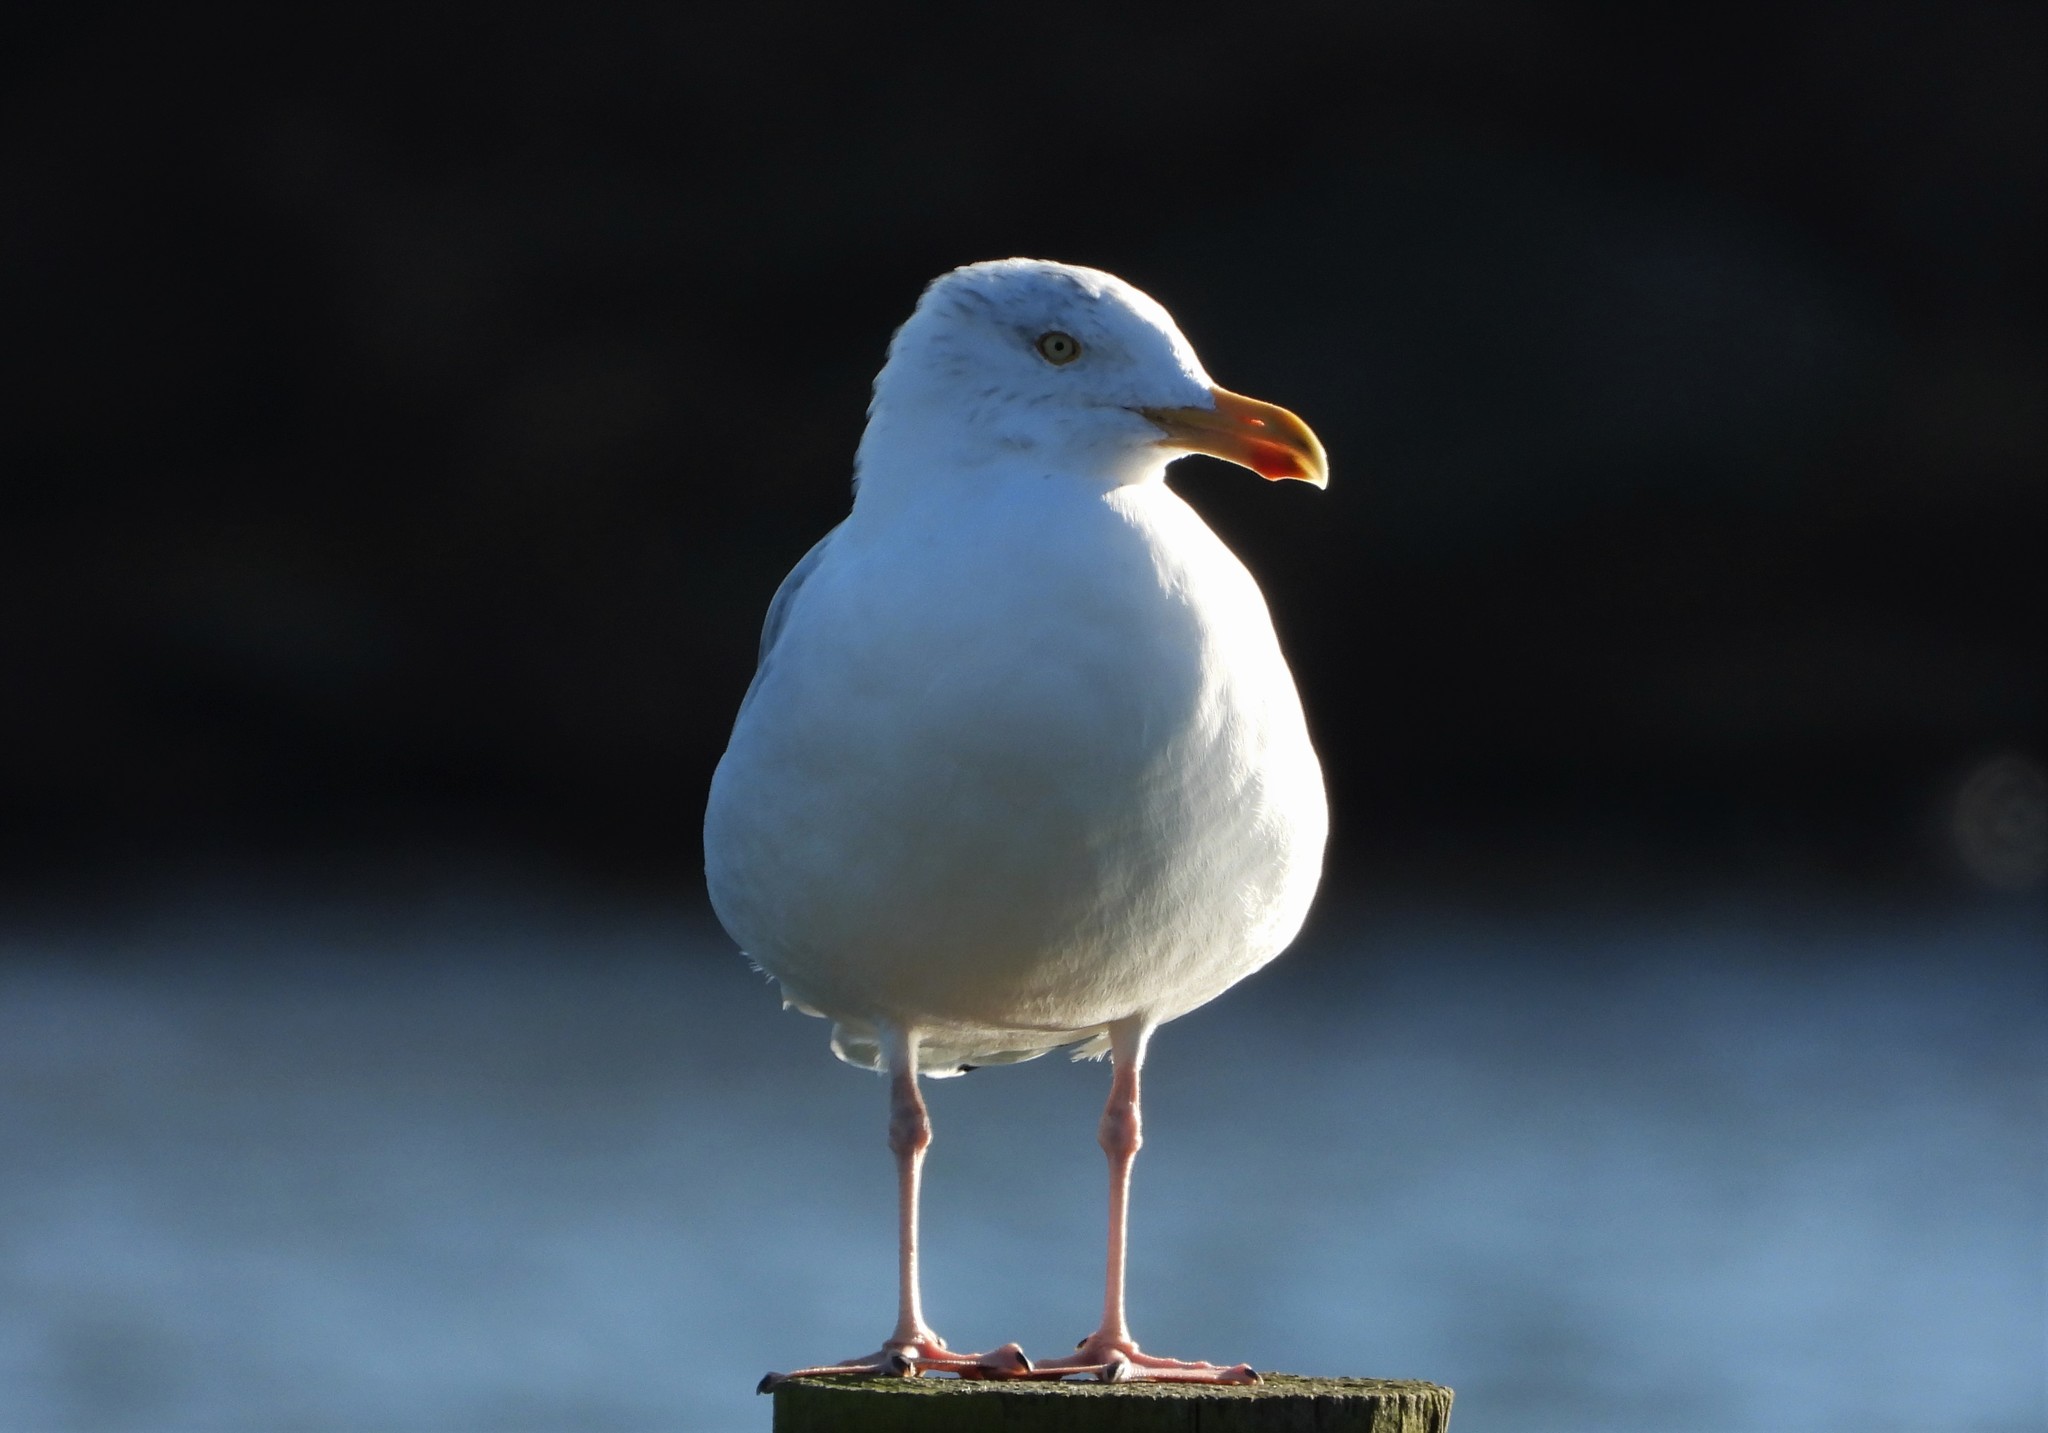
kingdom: Animalia
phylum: Chordata
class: Aves
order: Charadriiformes
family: Laridae
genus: Larus
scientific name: Larus argentatus
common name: Herring gull
